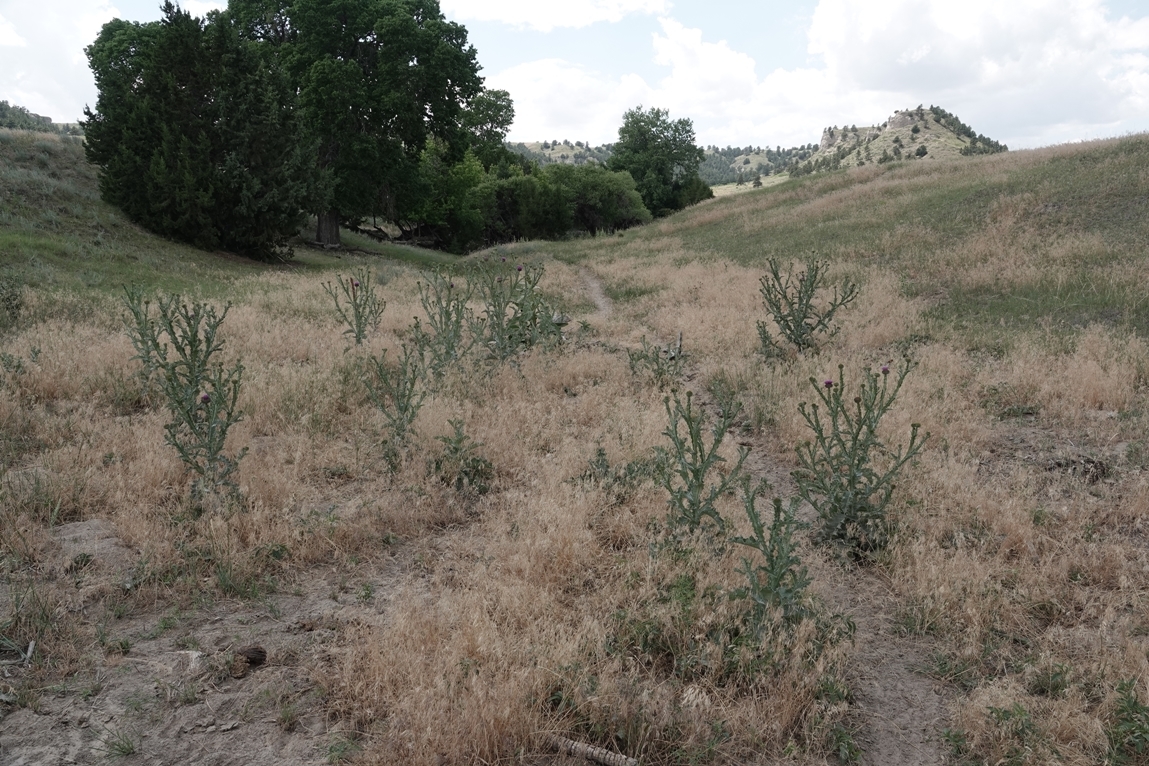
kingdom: Plantae
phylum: Tracheophyta
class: Magnoliopsida
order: Asterales
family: Asteraceae
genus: Onopordum
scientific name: Onopordum acanthium
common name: Scotch thistle
